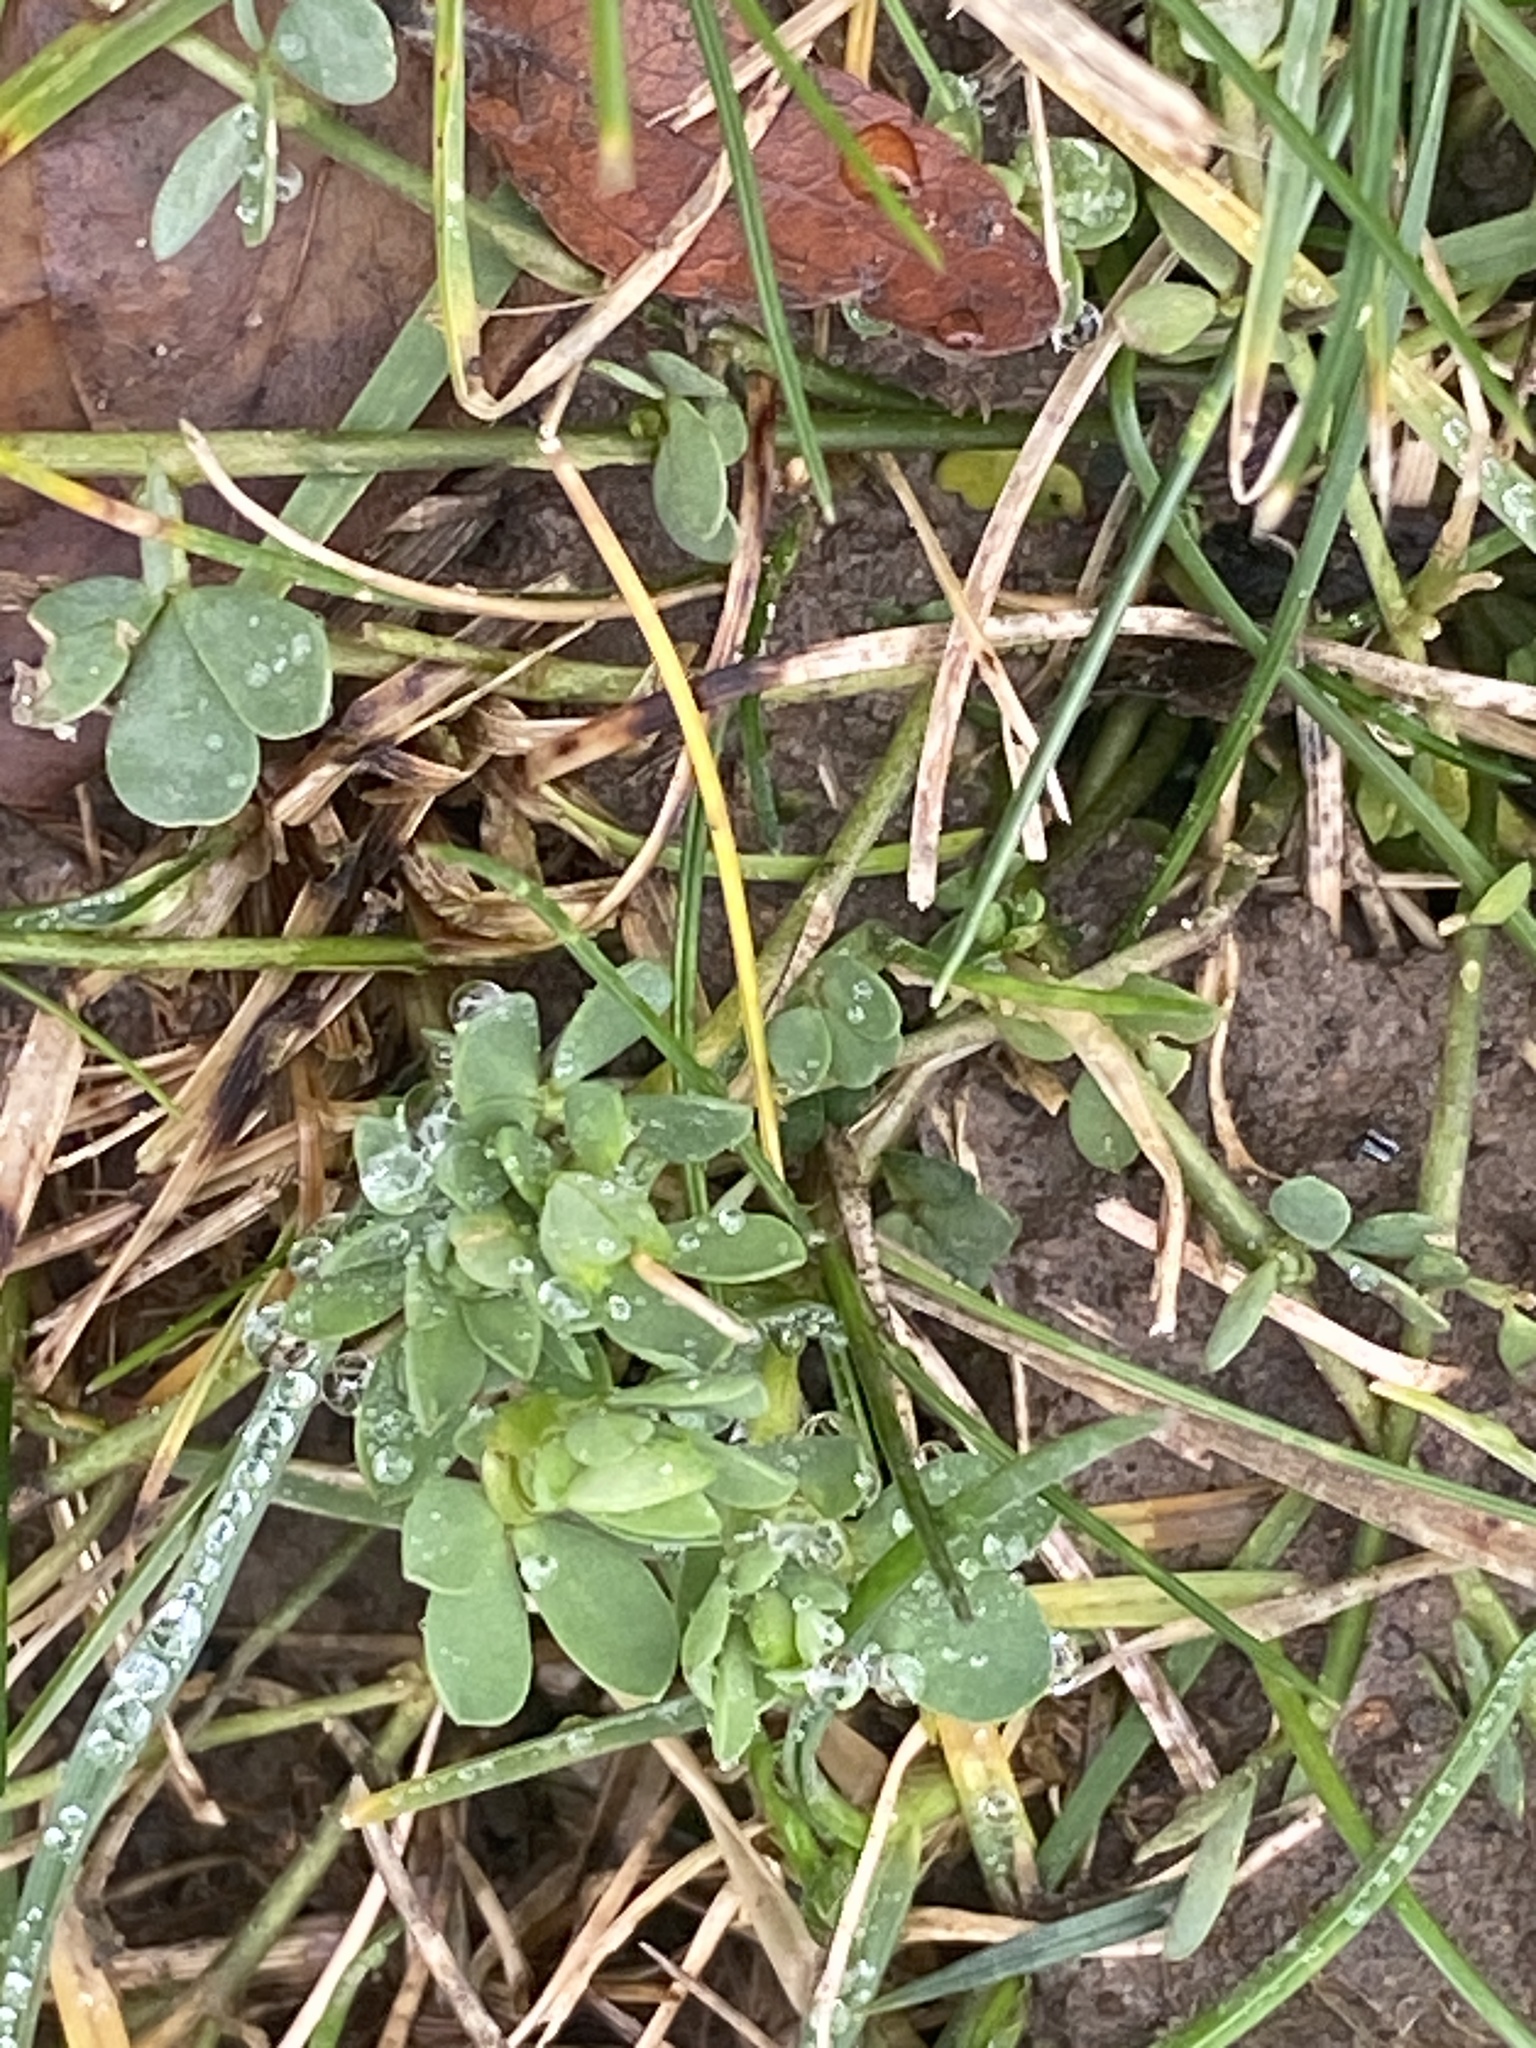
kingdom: Plantae
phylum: Tracheophyta
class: Magnoliopsida
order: Fabales
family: Fabaceae
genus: Lotus
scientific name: Lotus corniculatus
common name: Common bird's-foot-trefoil
